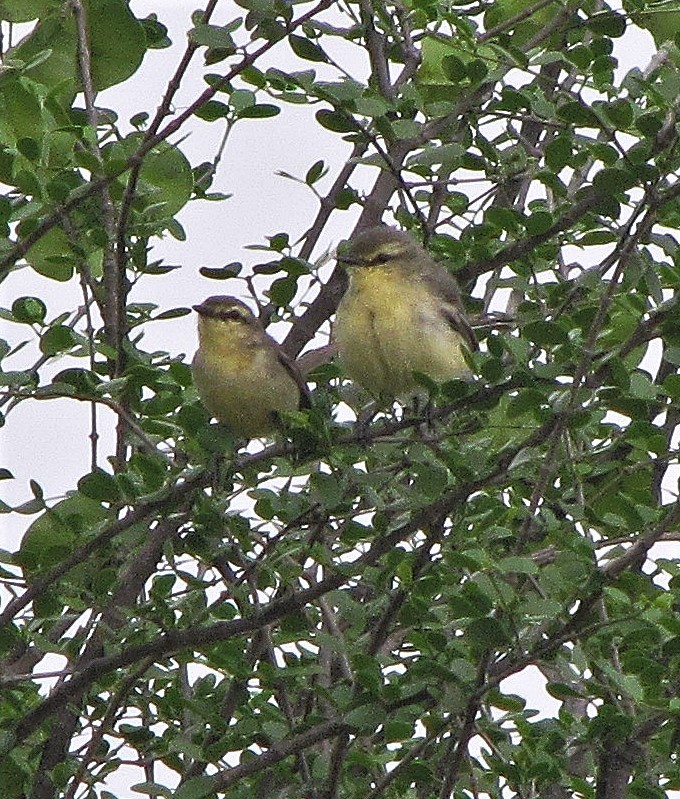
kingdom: Animalia
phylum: Chordata
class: Aves
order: Passeriformes
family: Tyrannidae
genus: Stigmatura
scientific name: Stigmatura budytoides
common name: Greater wagtail-tyrant
